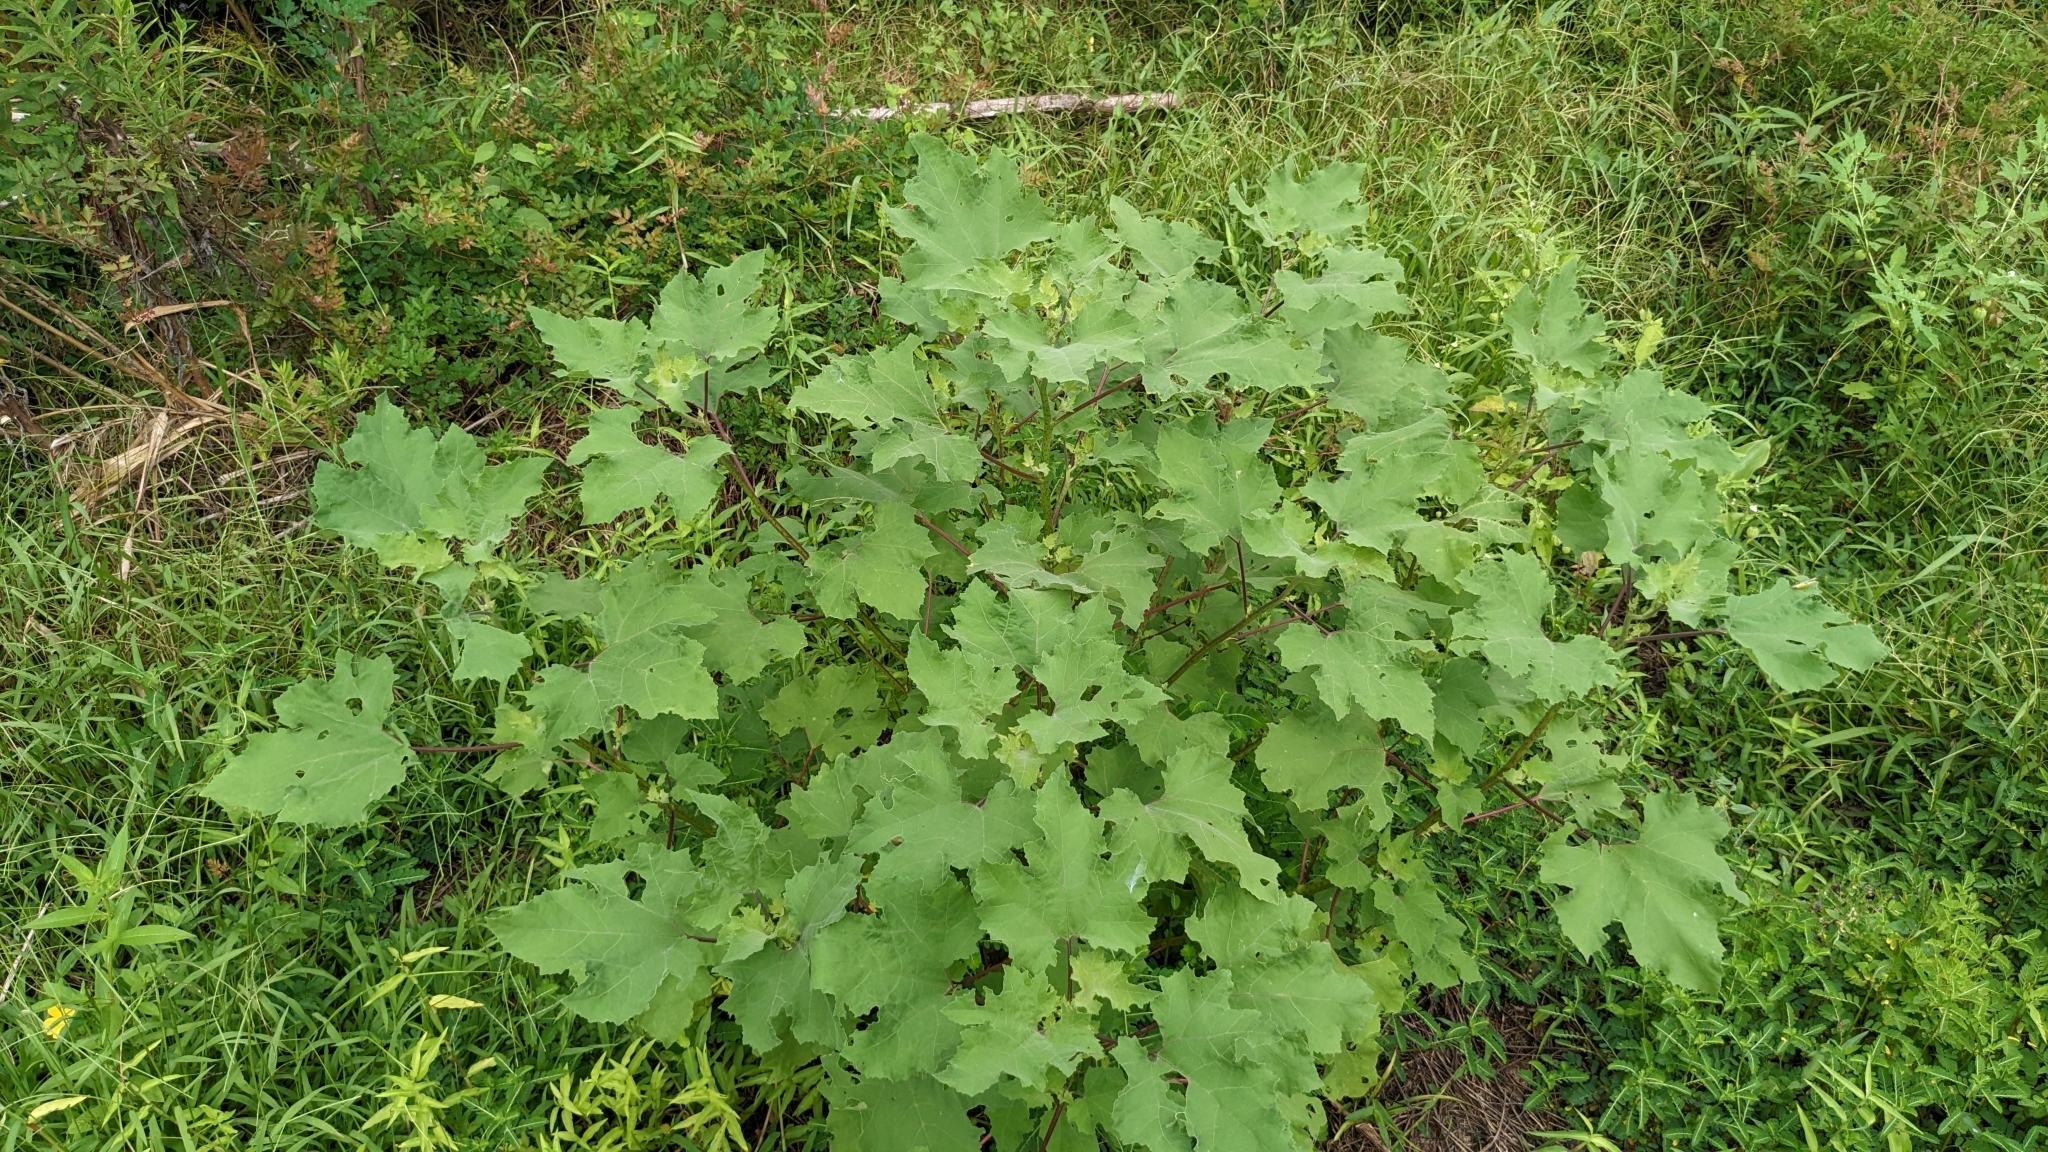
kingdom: Plantae
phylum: Tracheophyta
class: Magnoliopsida
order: Asterales
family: Asteraceae
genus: Xanthium
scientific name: Xanthium strumarium
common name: Rough cocklebur
